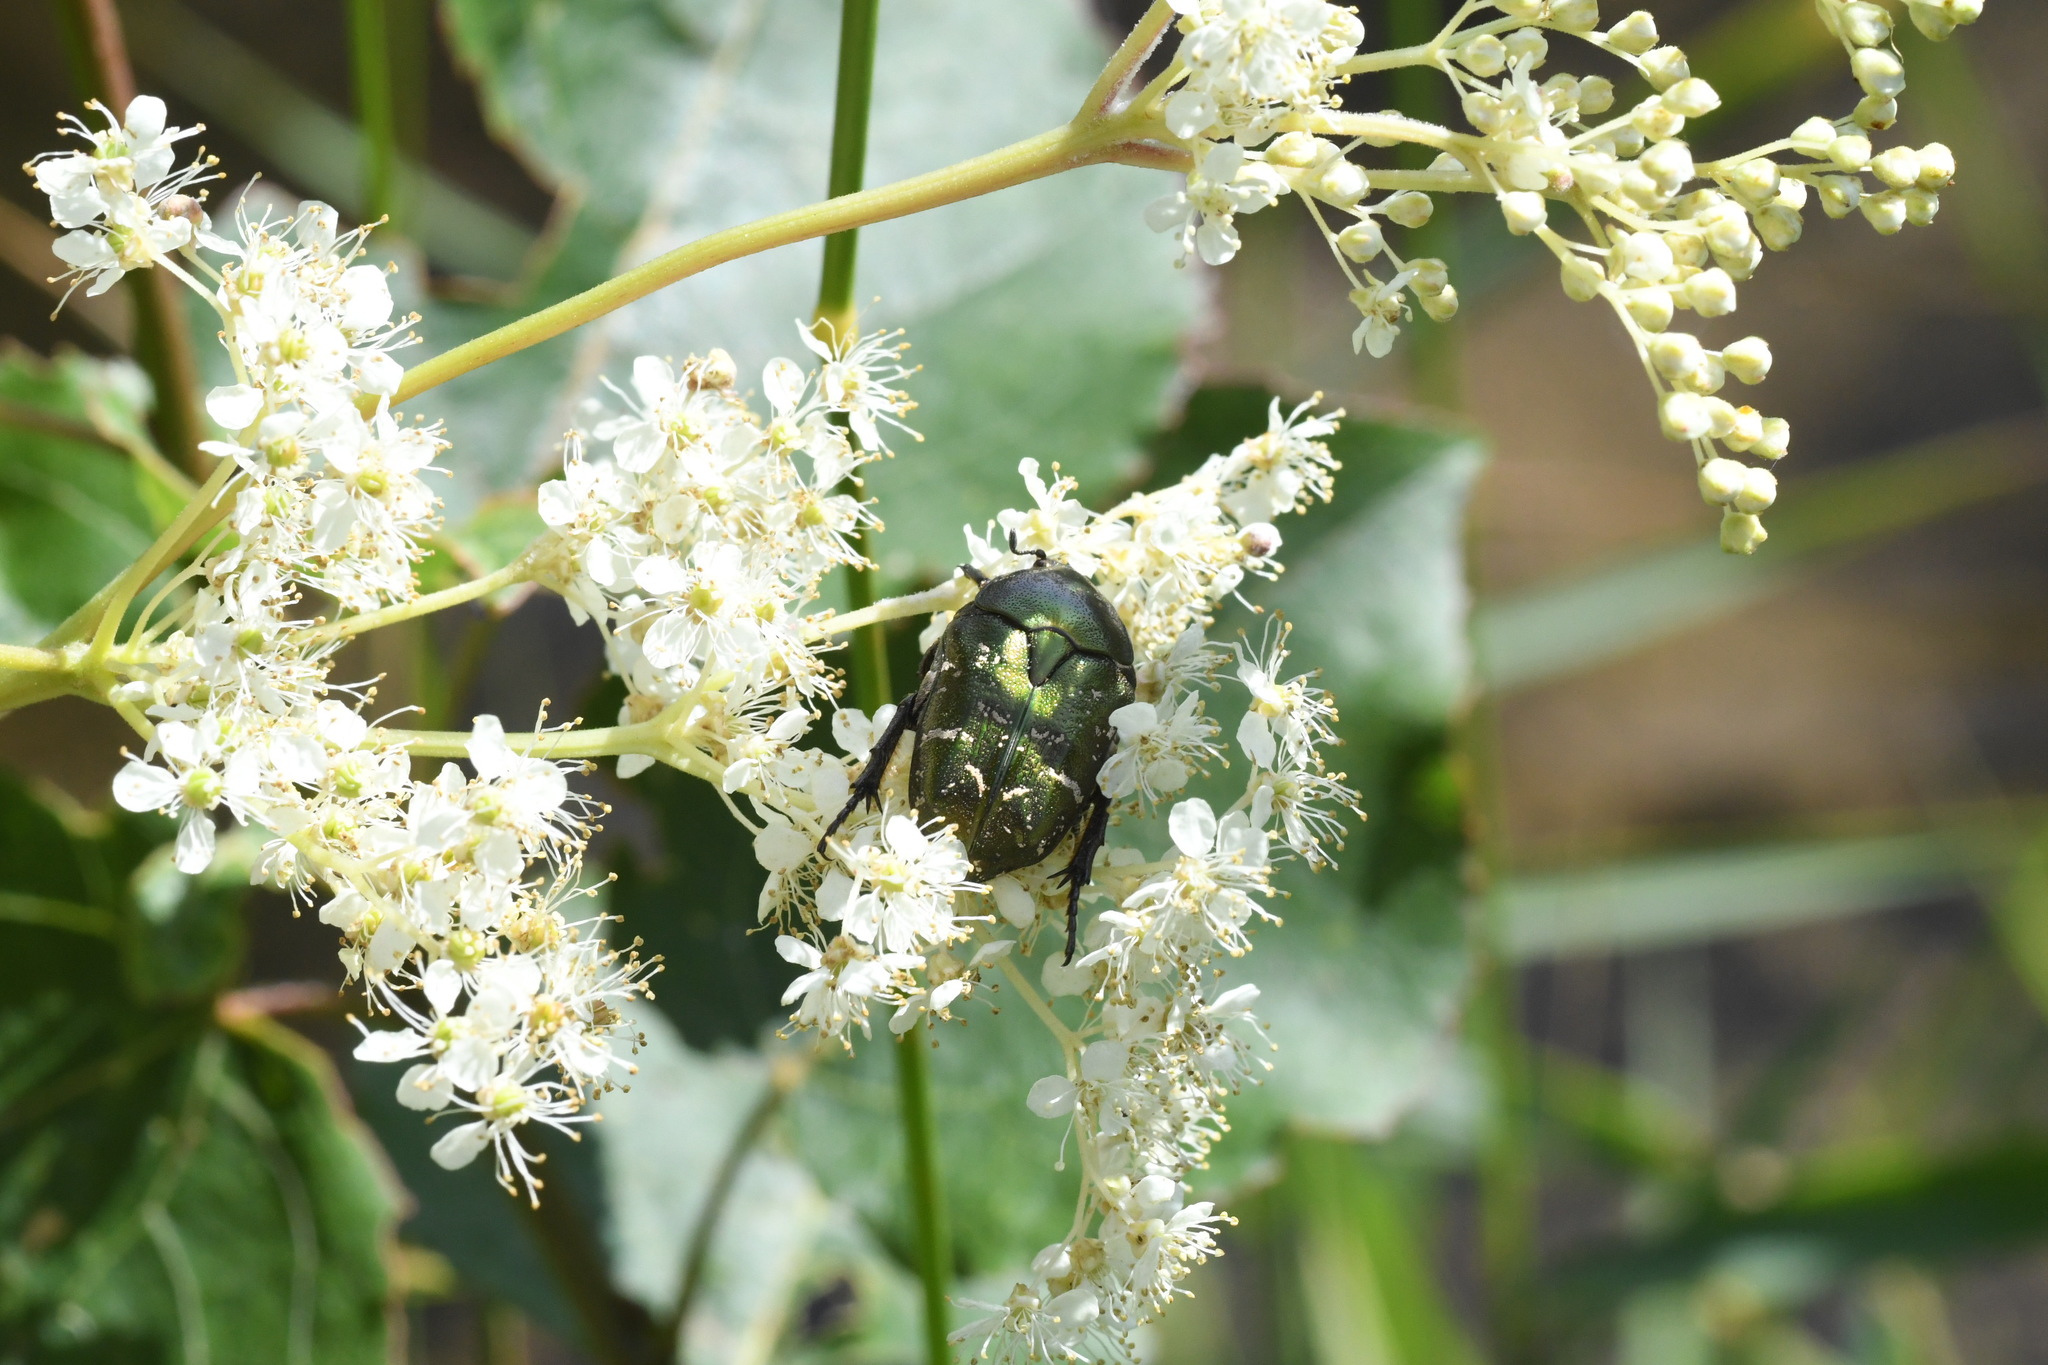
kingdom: Animalia
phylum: Arthropoda
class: Insecta
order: Coleoptera
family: Scarabaeidae
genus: Protaetia
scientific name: Protaetia cuprea
